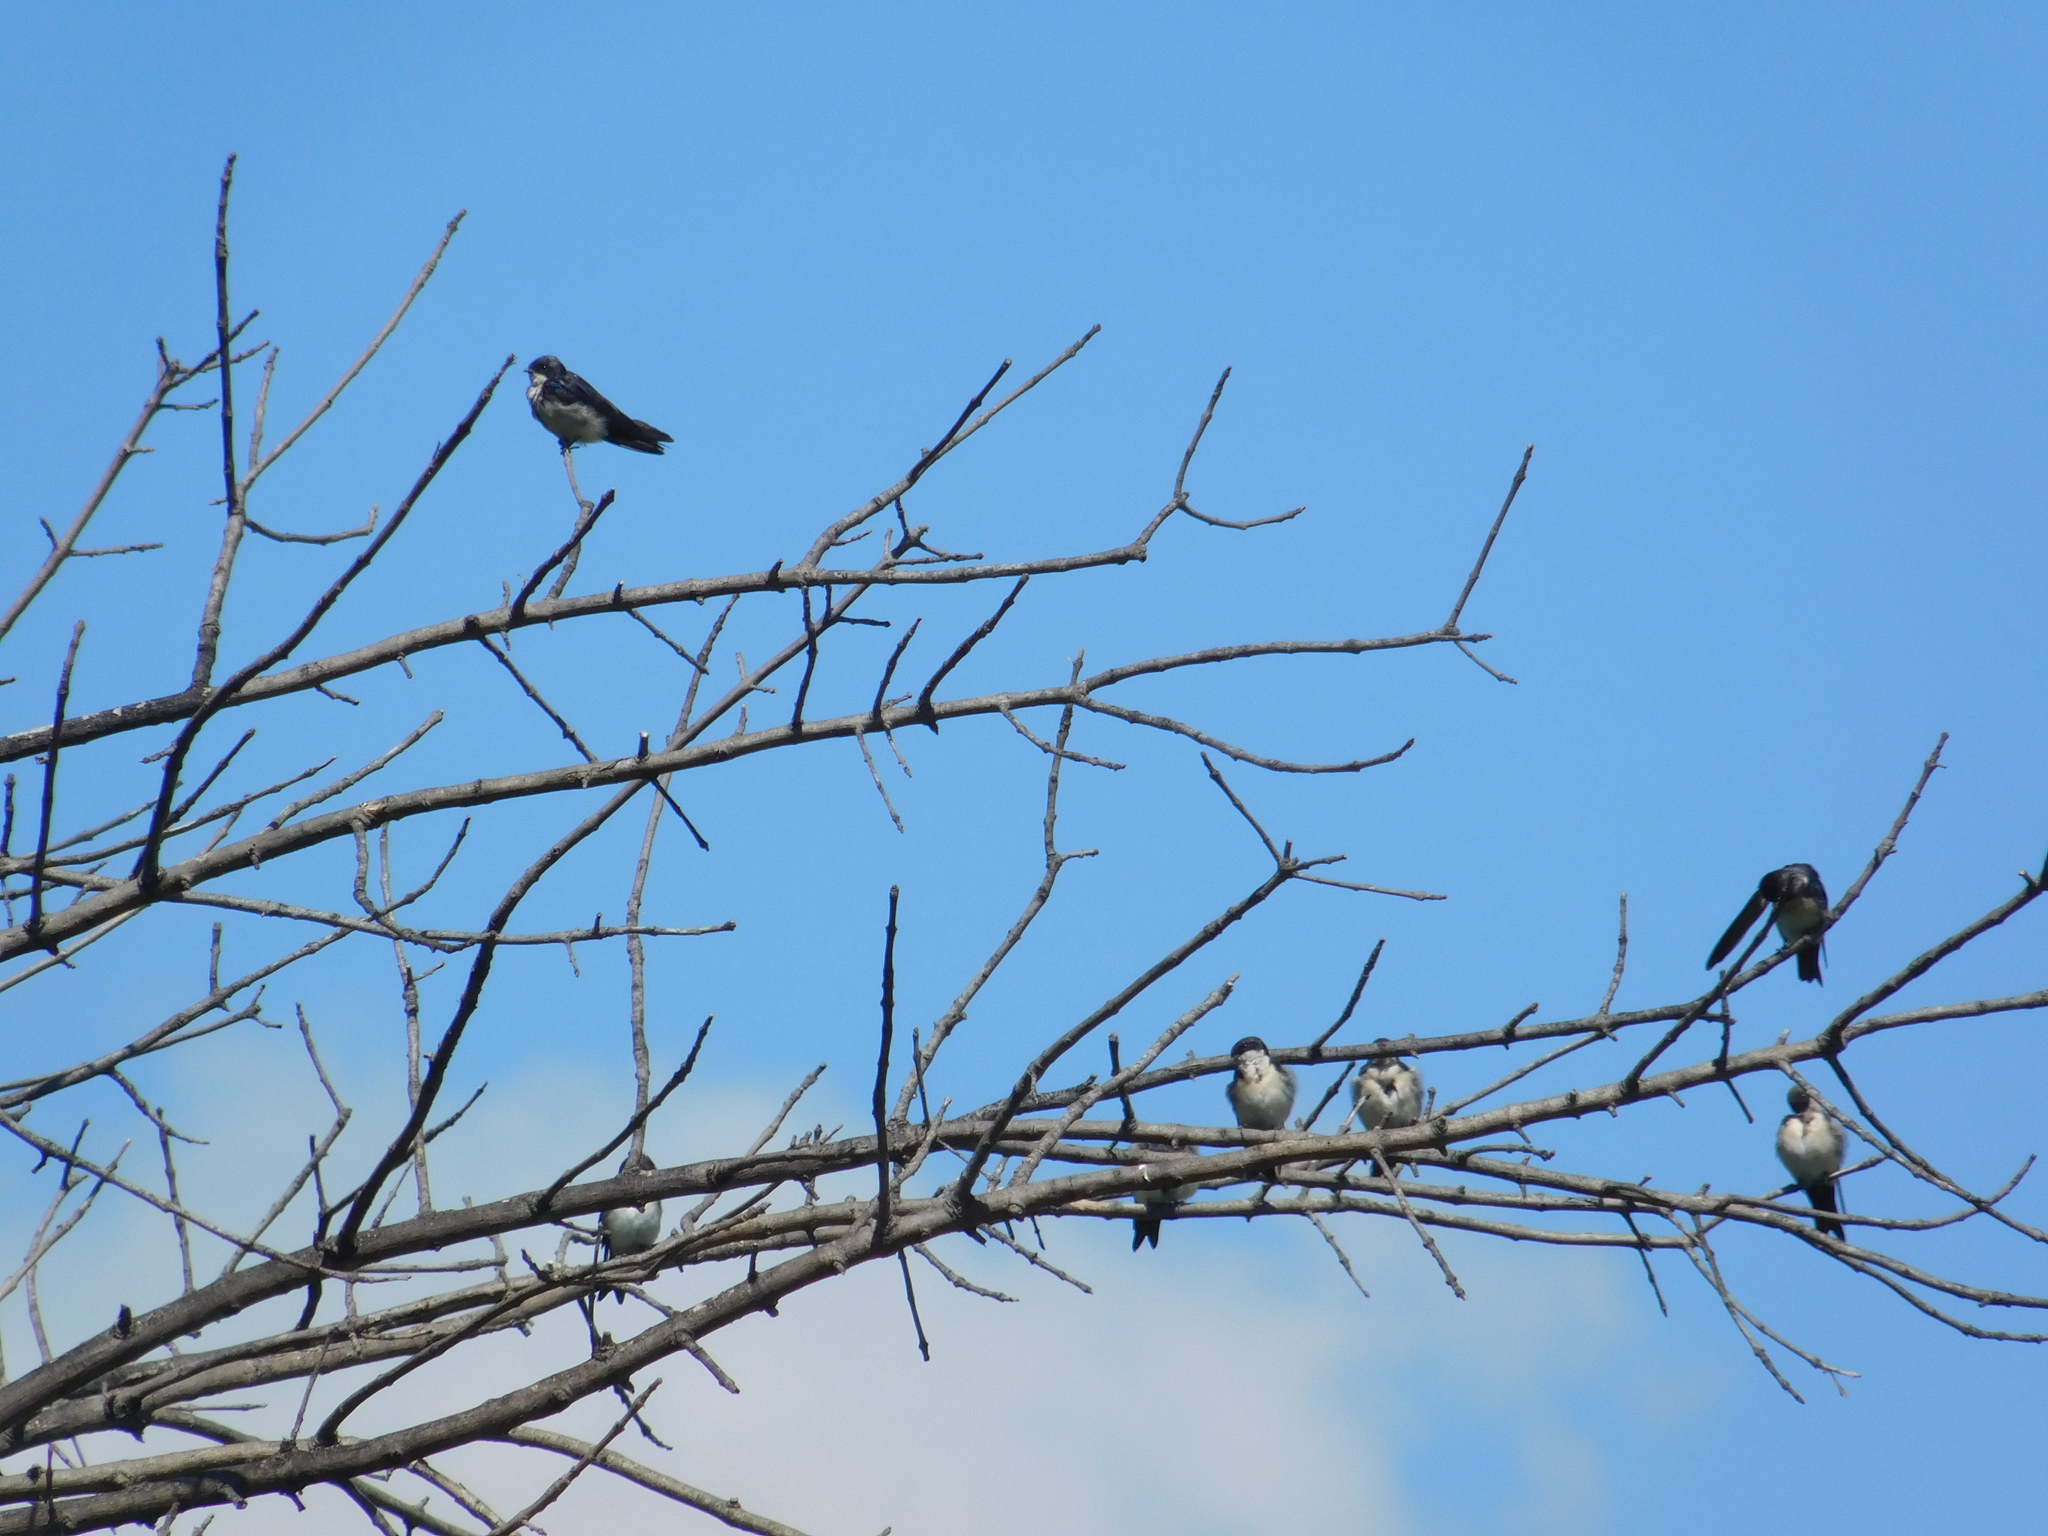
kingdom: Animalia
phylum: Chordata
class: Aves
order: Passeriformes
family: Hirundinidae
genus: Notiochelidon
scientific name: Notiochelidon cyanoleuca
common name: Blue-and-white swallow
